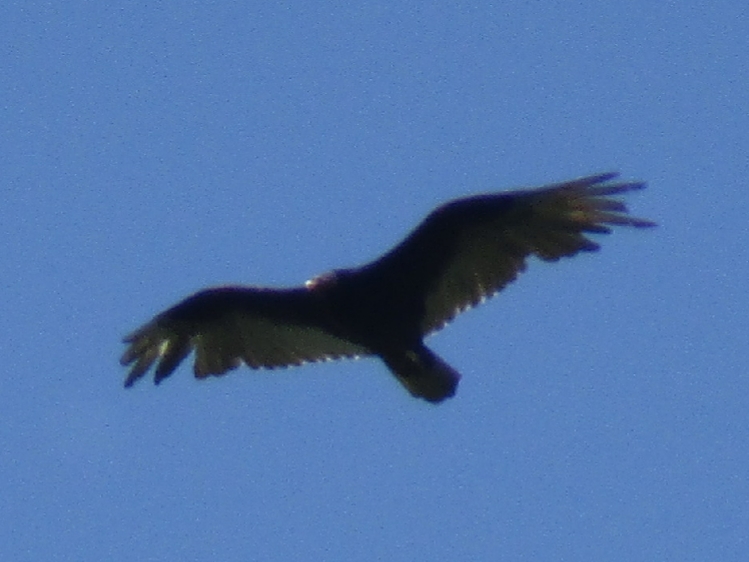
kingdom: Animalia
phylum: Chordata
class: Aves
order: Accipitriformes
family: Cathartidae
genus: Cathartes
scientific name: Cathartes aura
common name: Turkey vulture
